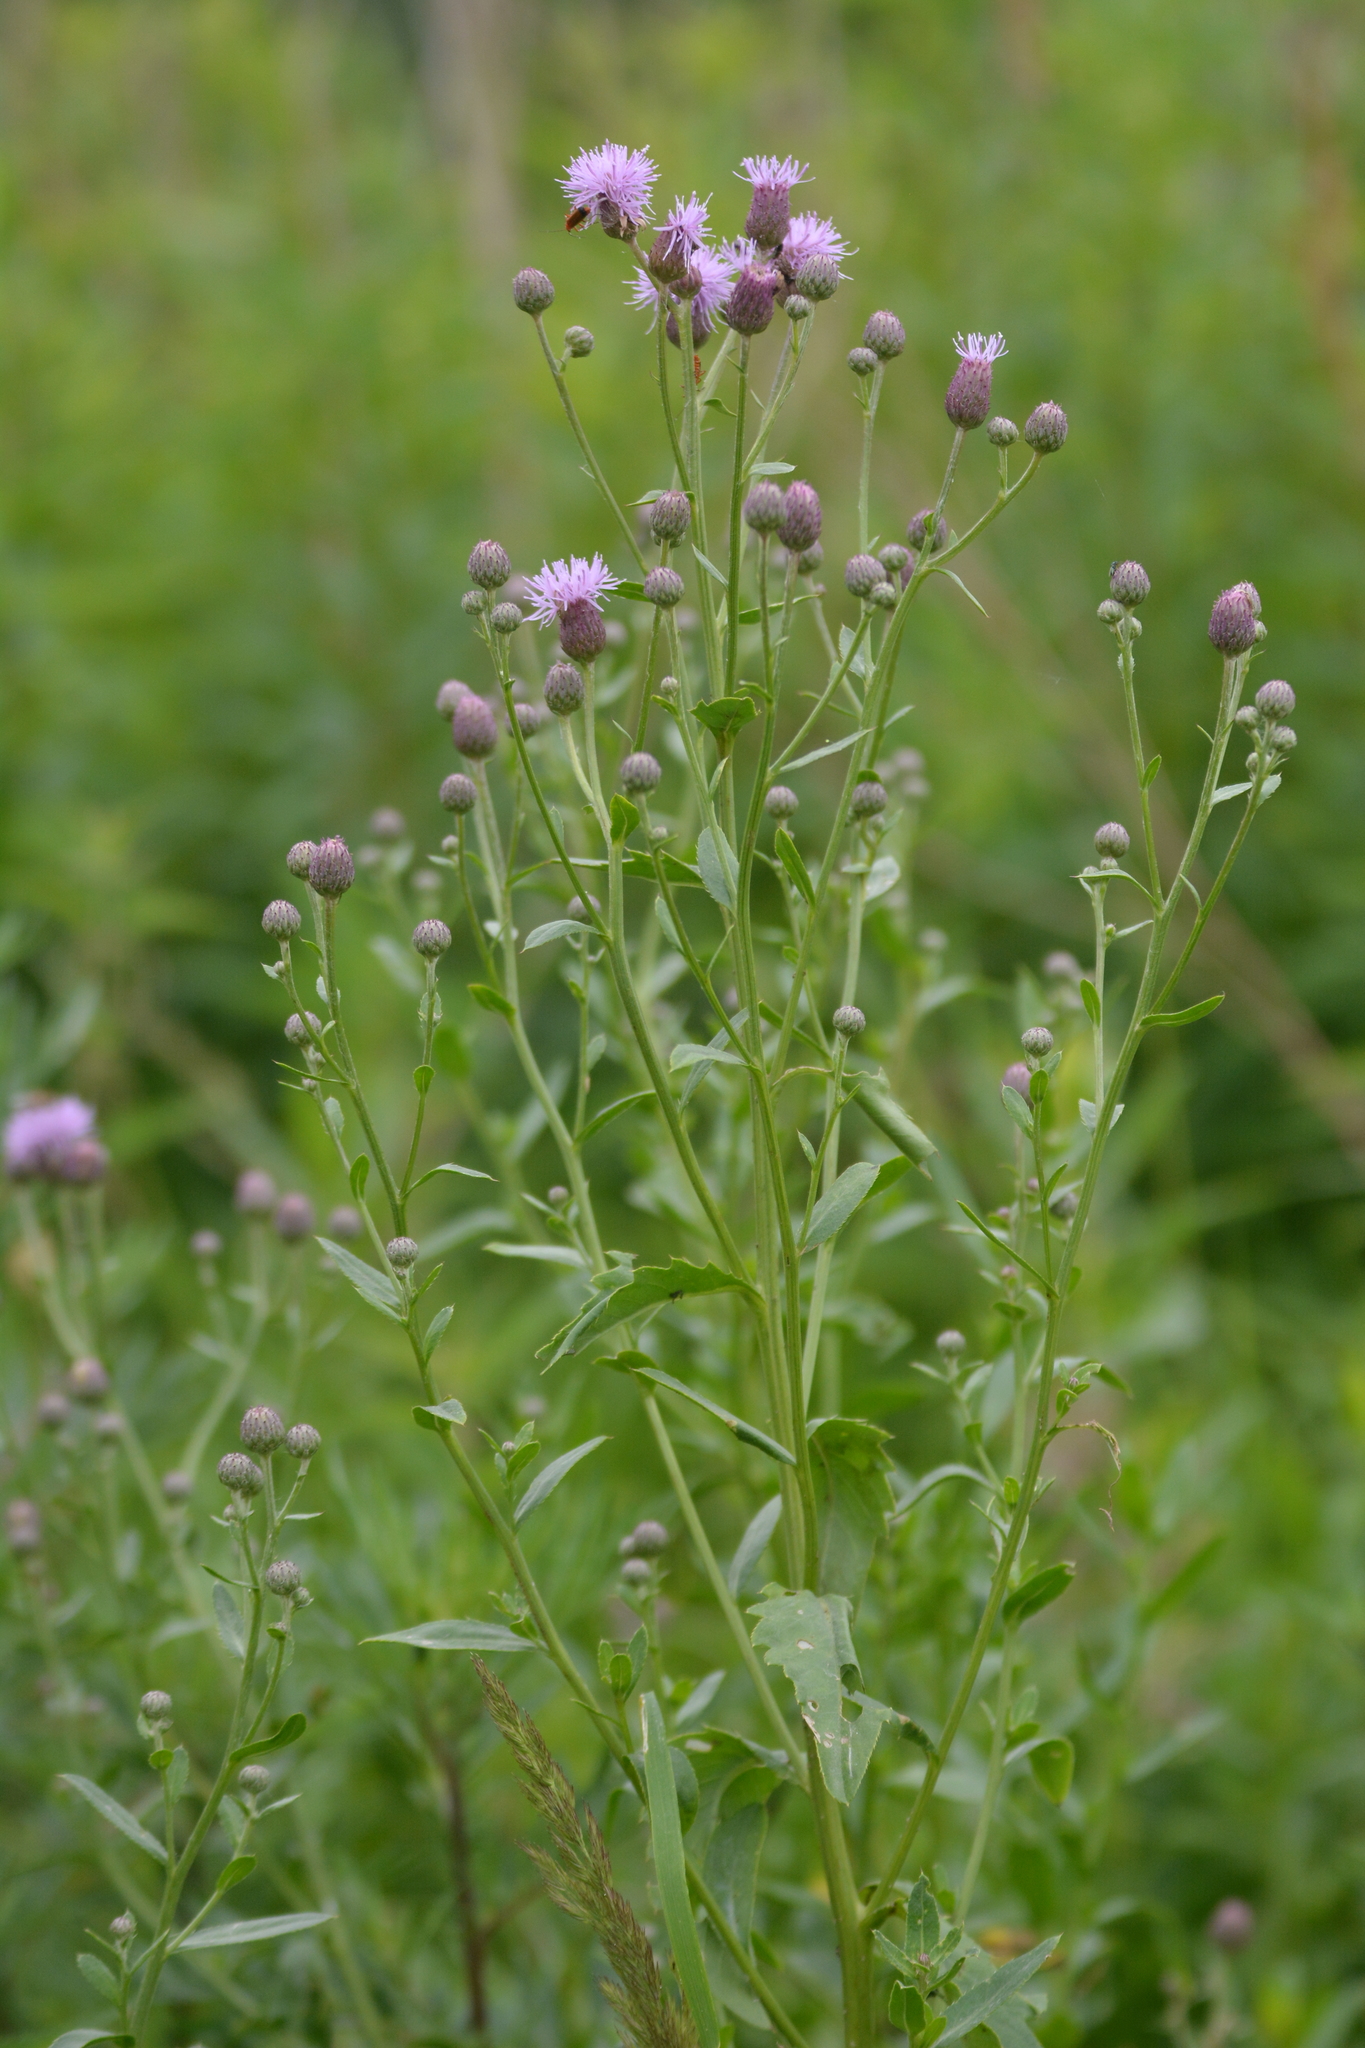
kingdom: Plantae
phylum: Tracheophyta
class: Magnoliopsida
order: Asterales
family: Asteraceae
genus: Cirsium
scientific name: Cirsium arvense
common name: Creeping thistle
